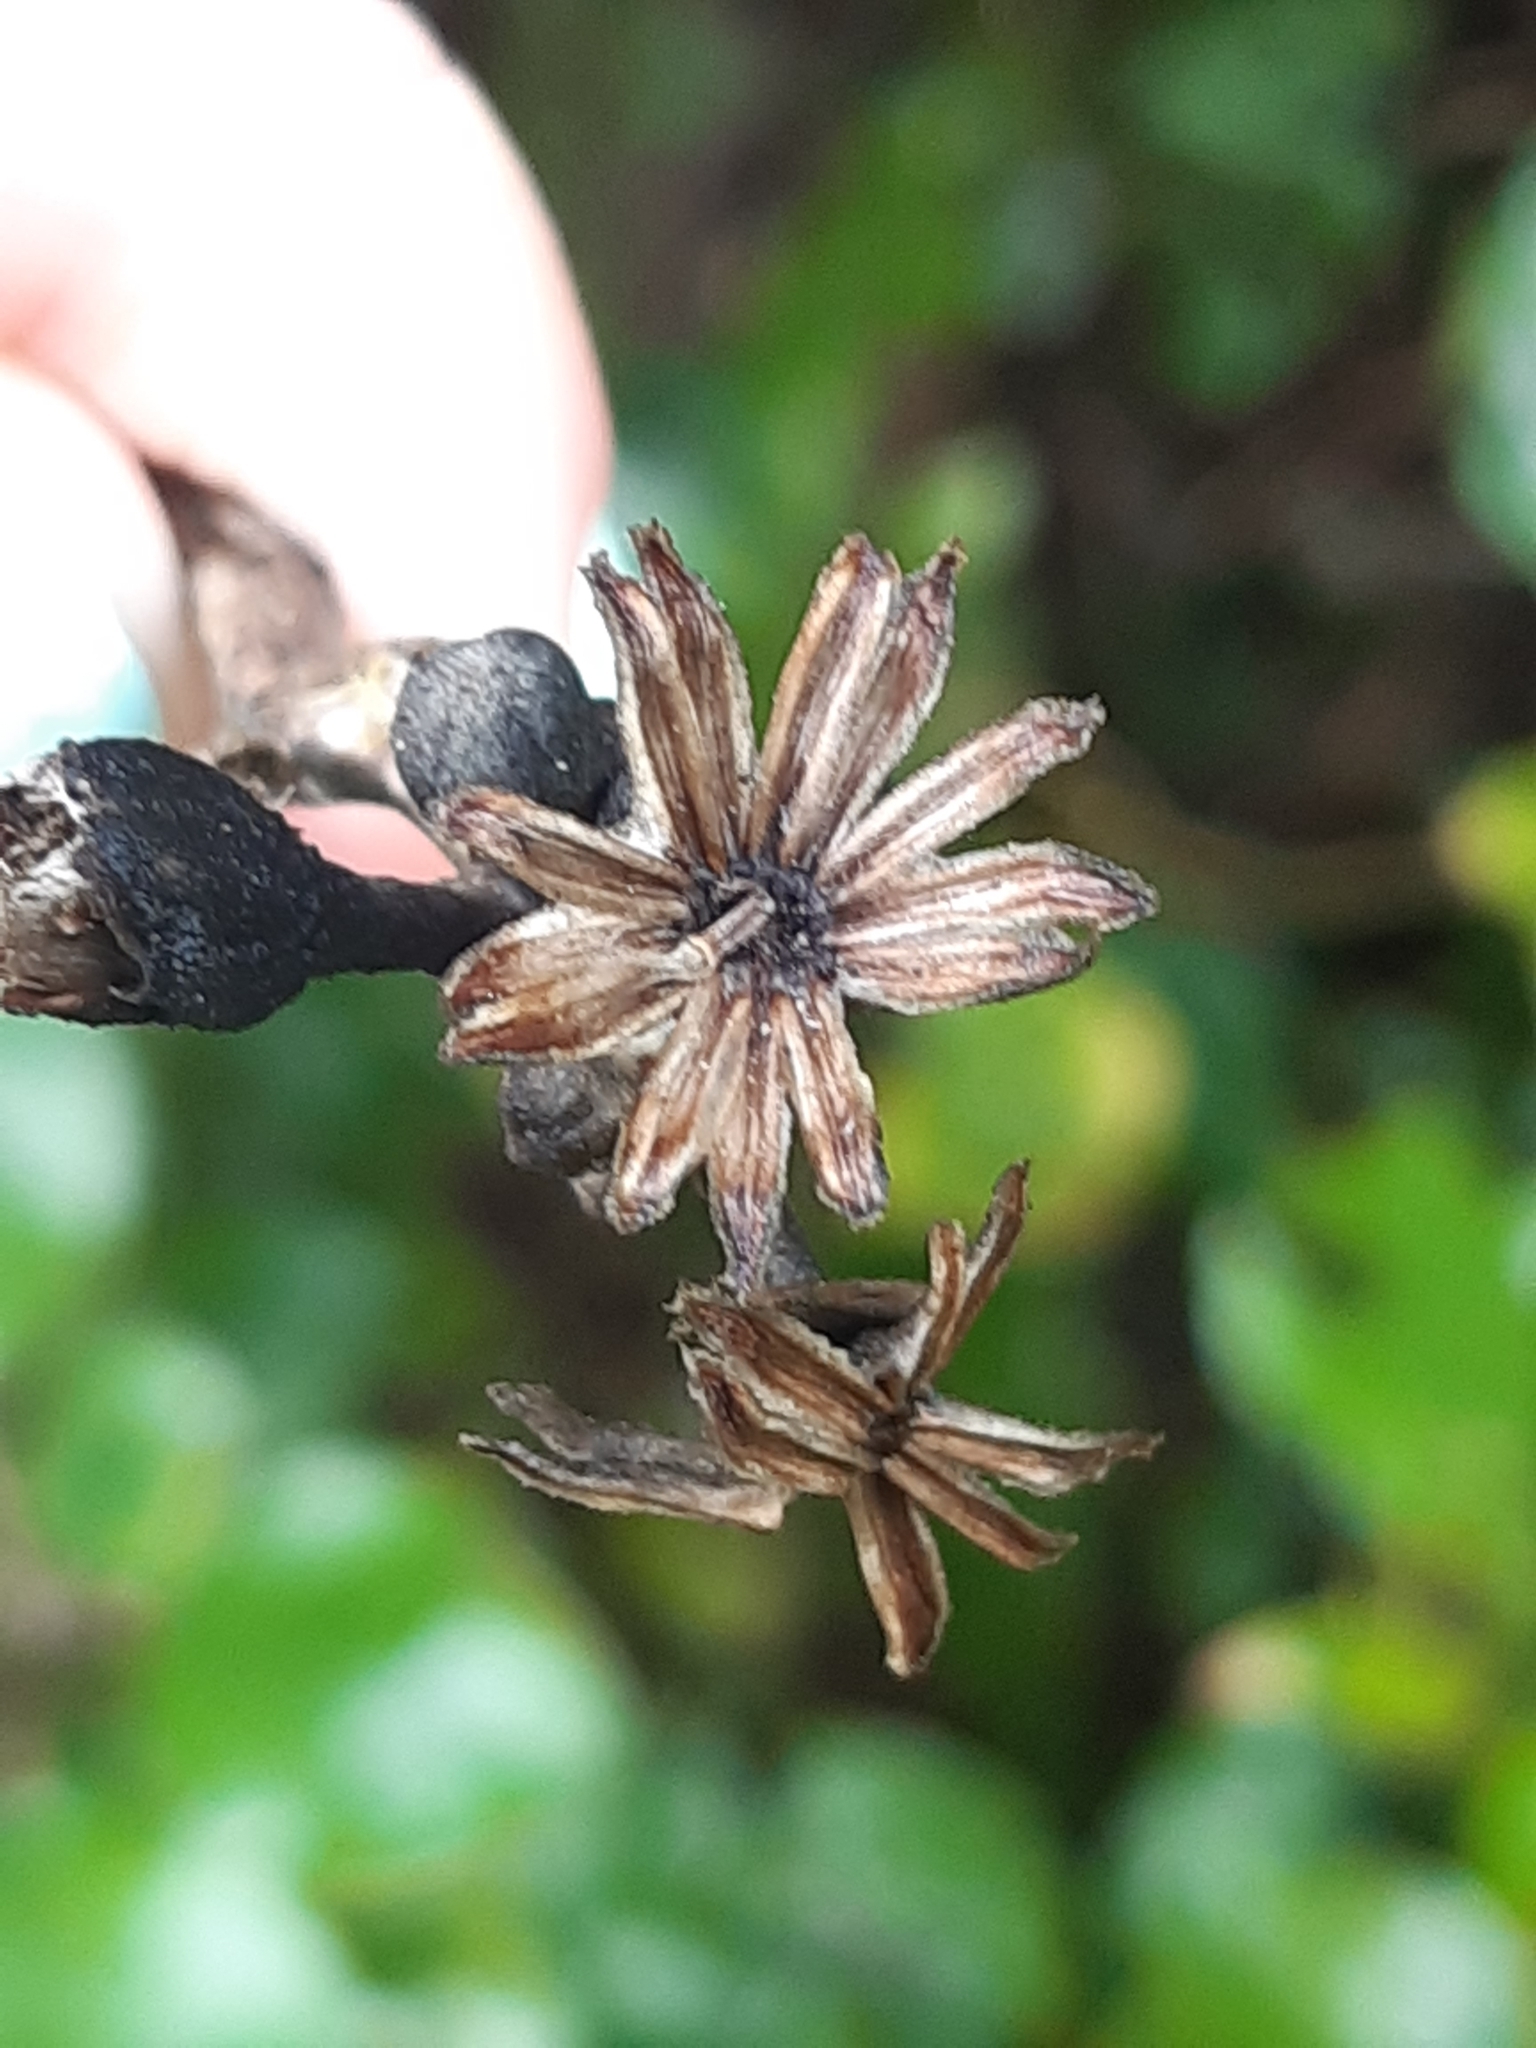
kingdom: Plantae
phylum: Tracheophyta
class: Magnoliopsida
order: Asterales
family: Asteraceae
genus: Brachyglottis
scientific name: Brachyglottis rotundifolia
